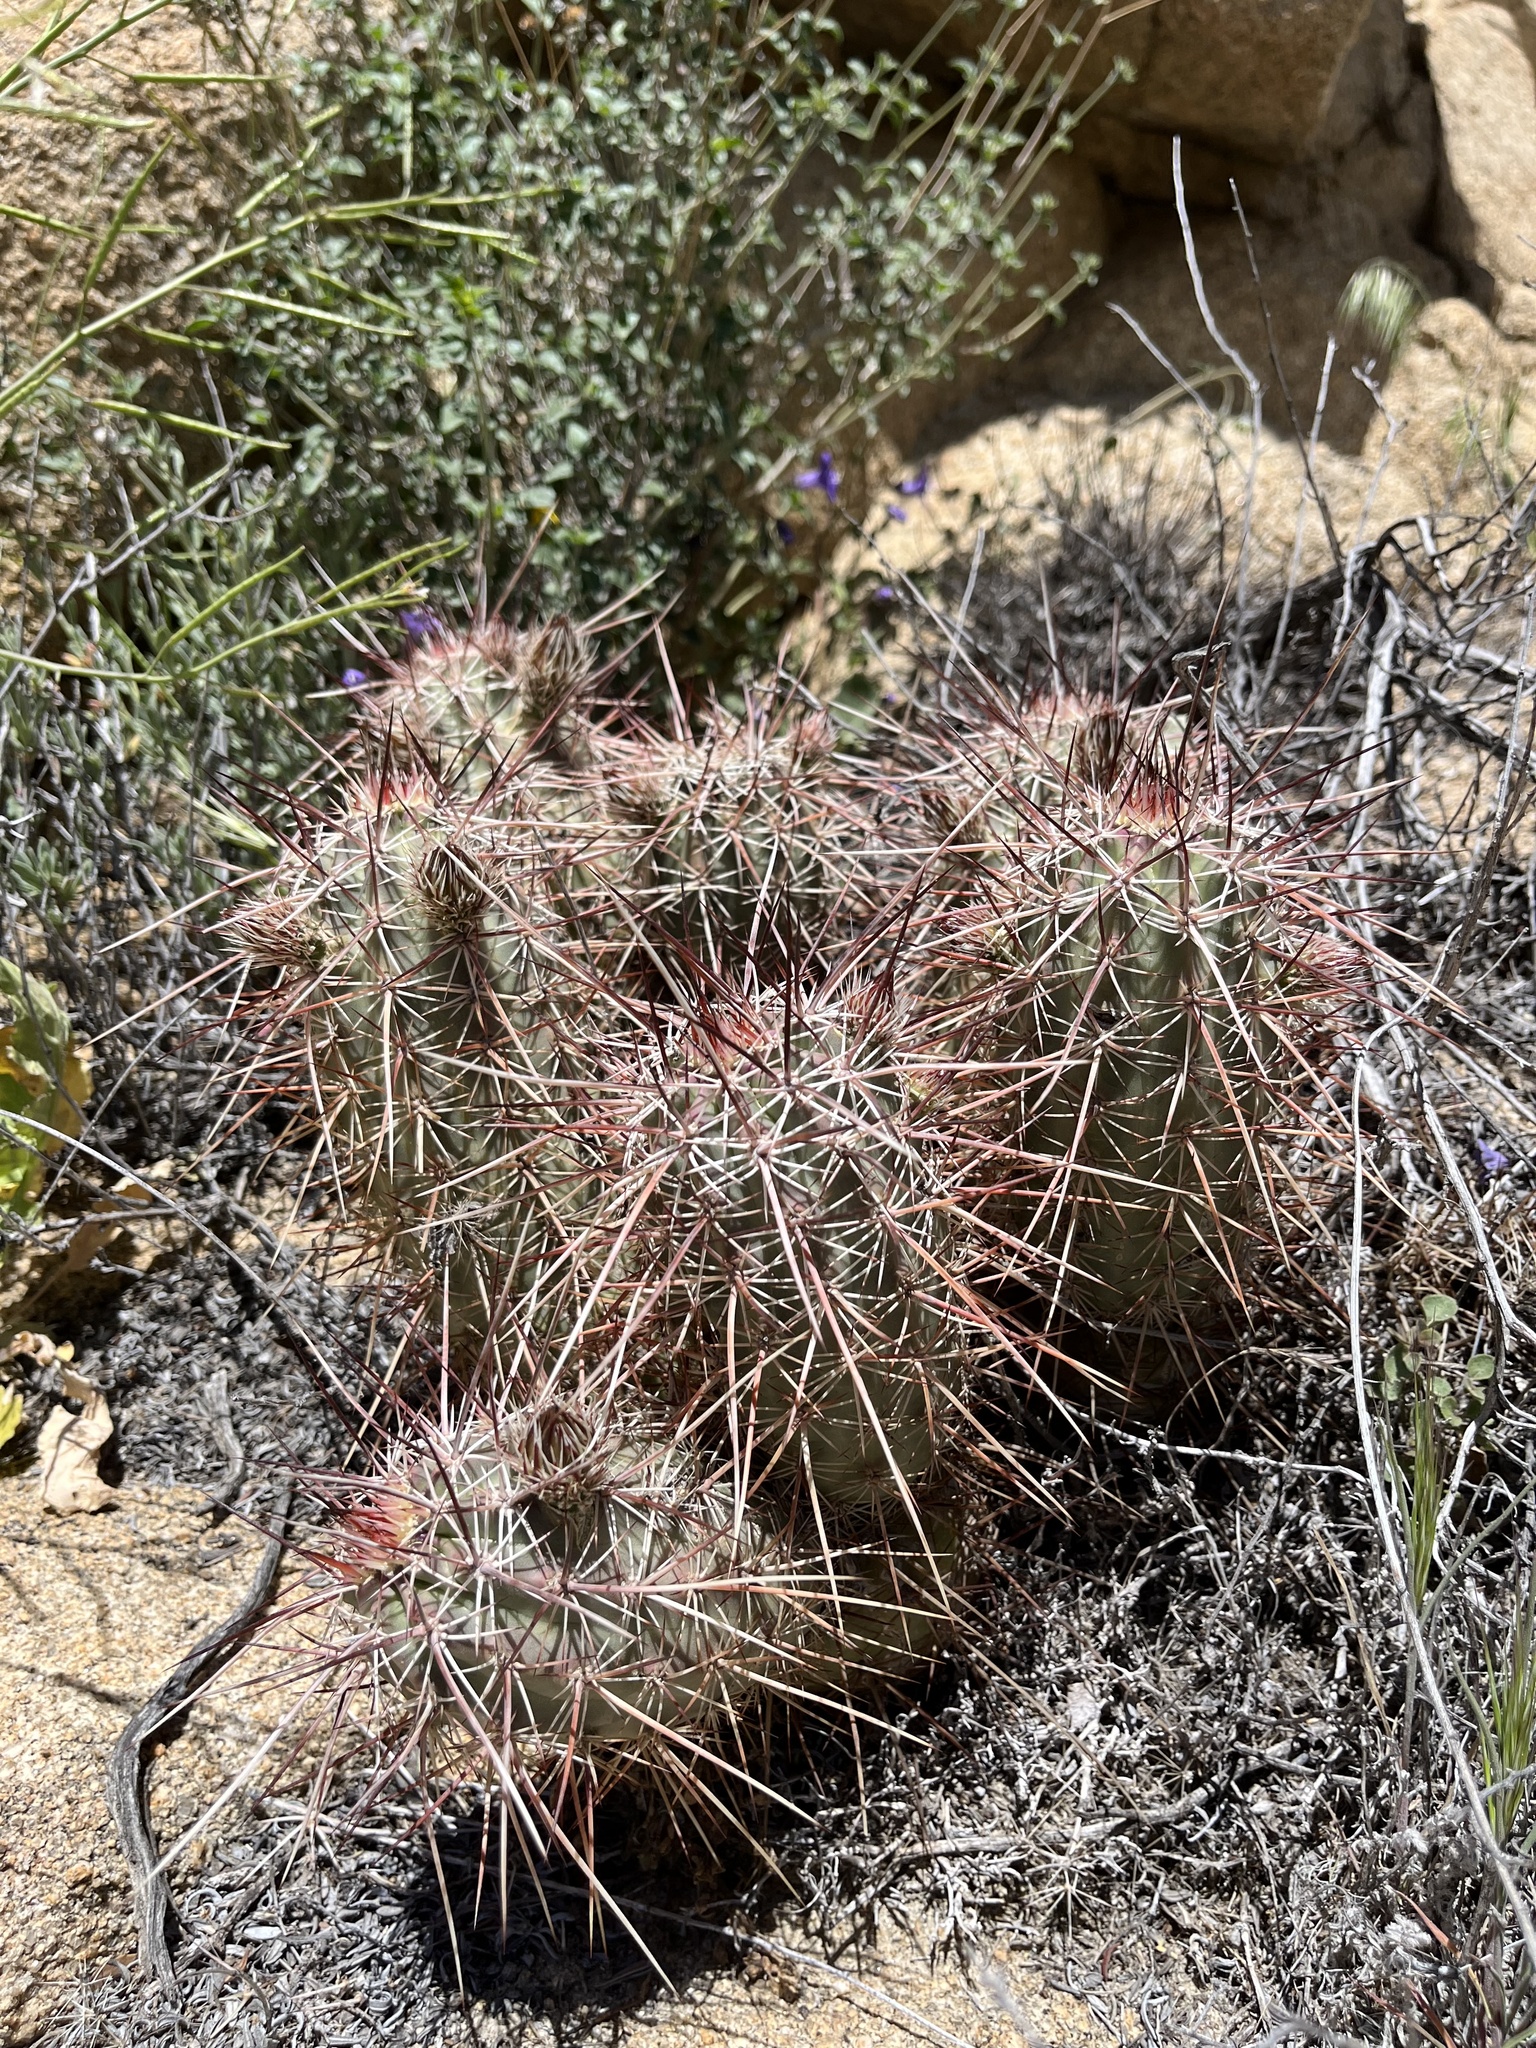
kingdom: Plantae
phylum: Tracheophyta
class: Magnoliopsida
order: Caryophyllales
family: Cactaceae
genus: Echinocereus
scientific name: Echinocereus engelmannii
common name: Engelmann's hedgehog cactus
